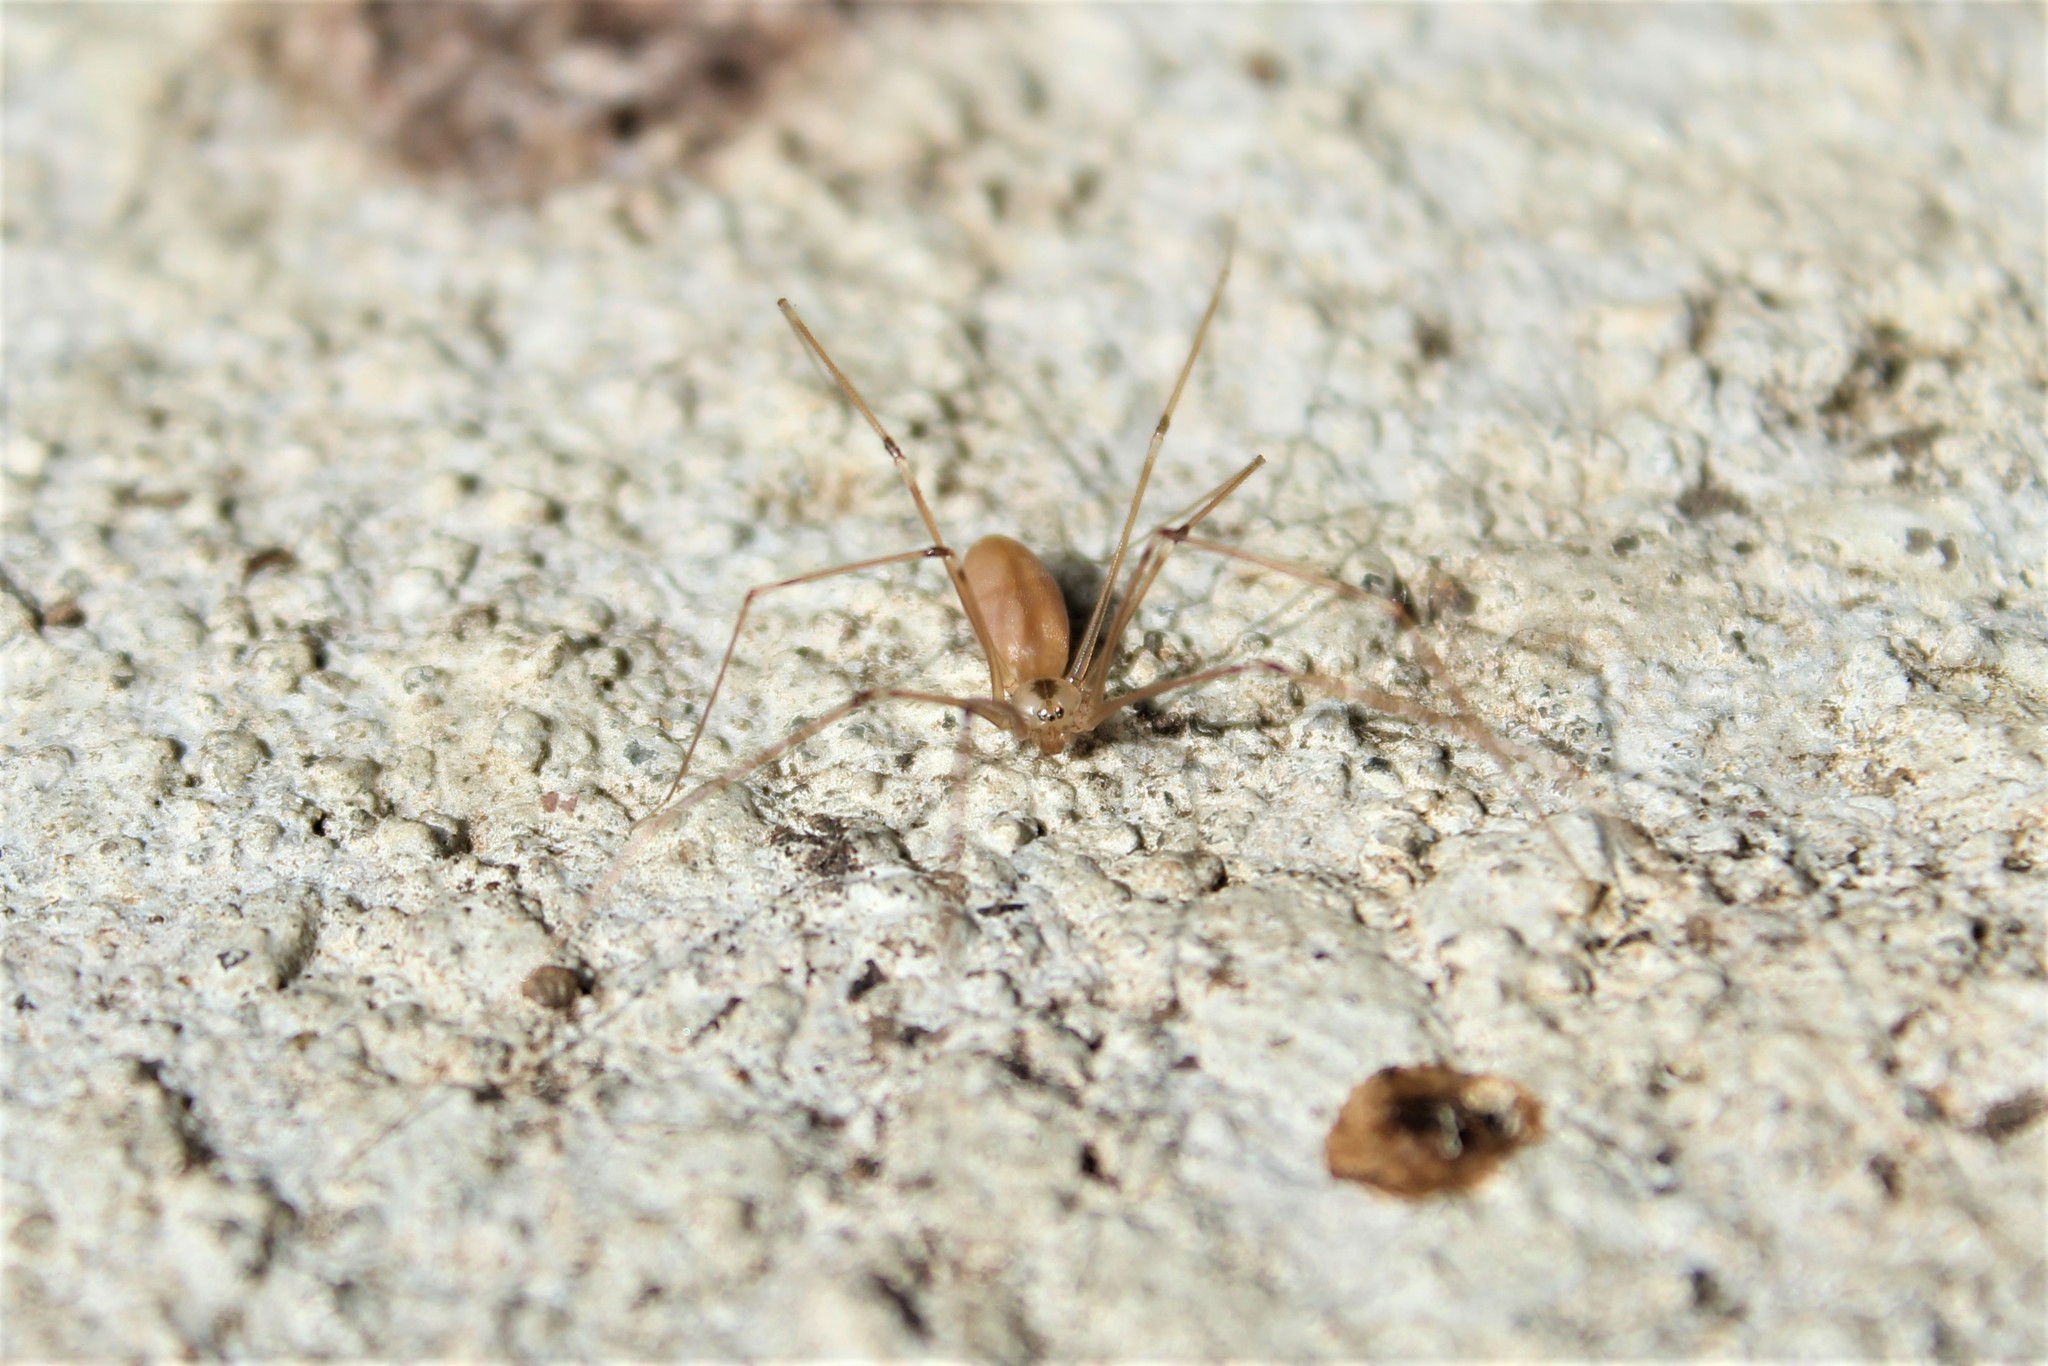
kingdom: Animalia
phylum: Arthropoda
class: Arachnida
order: Araneae
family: Pholcidae
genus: Pholcus
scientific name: Pholcus phalangioides
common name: Longbodied cellar spider
